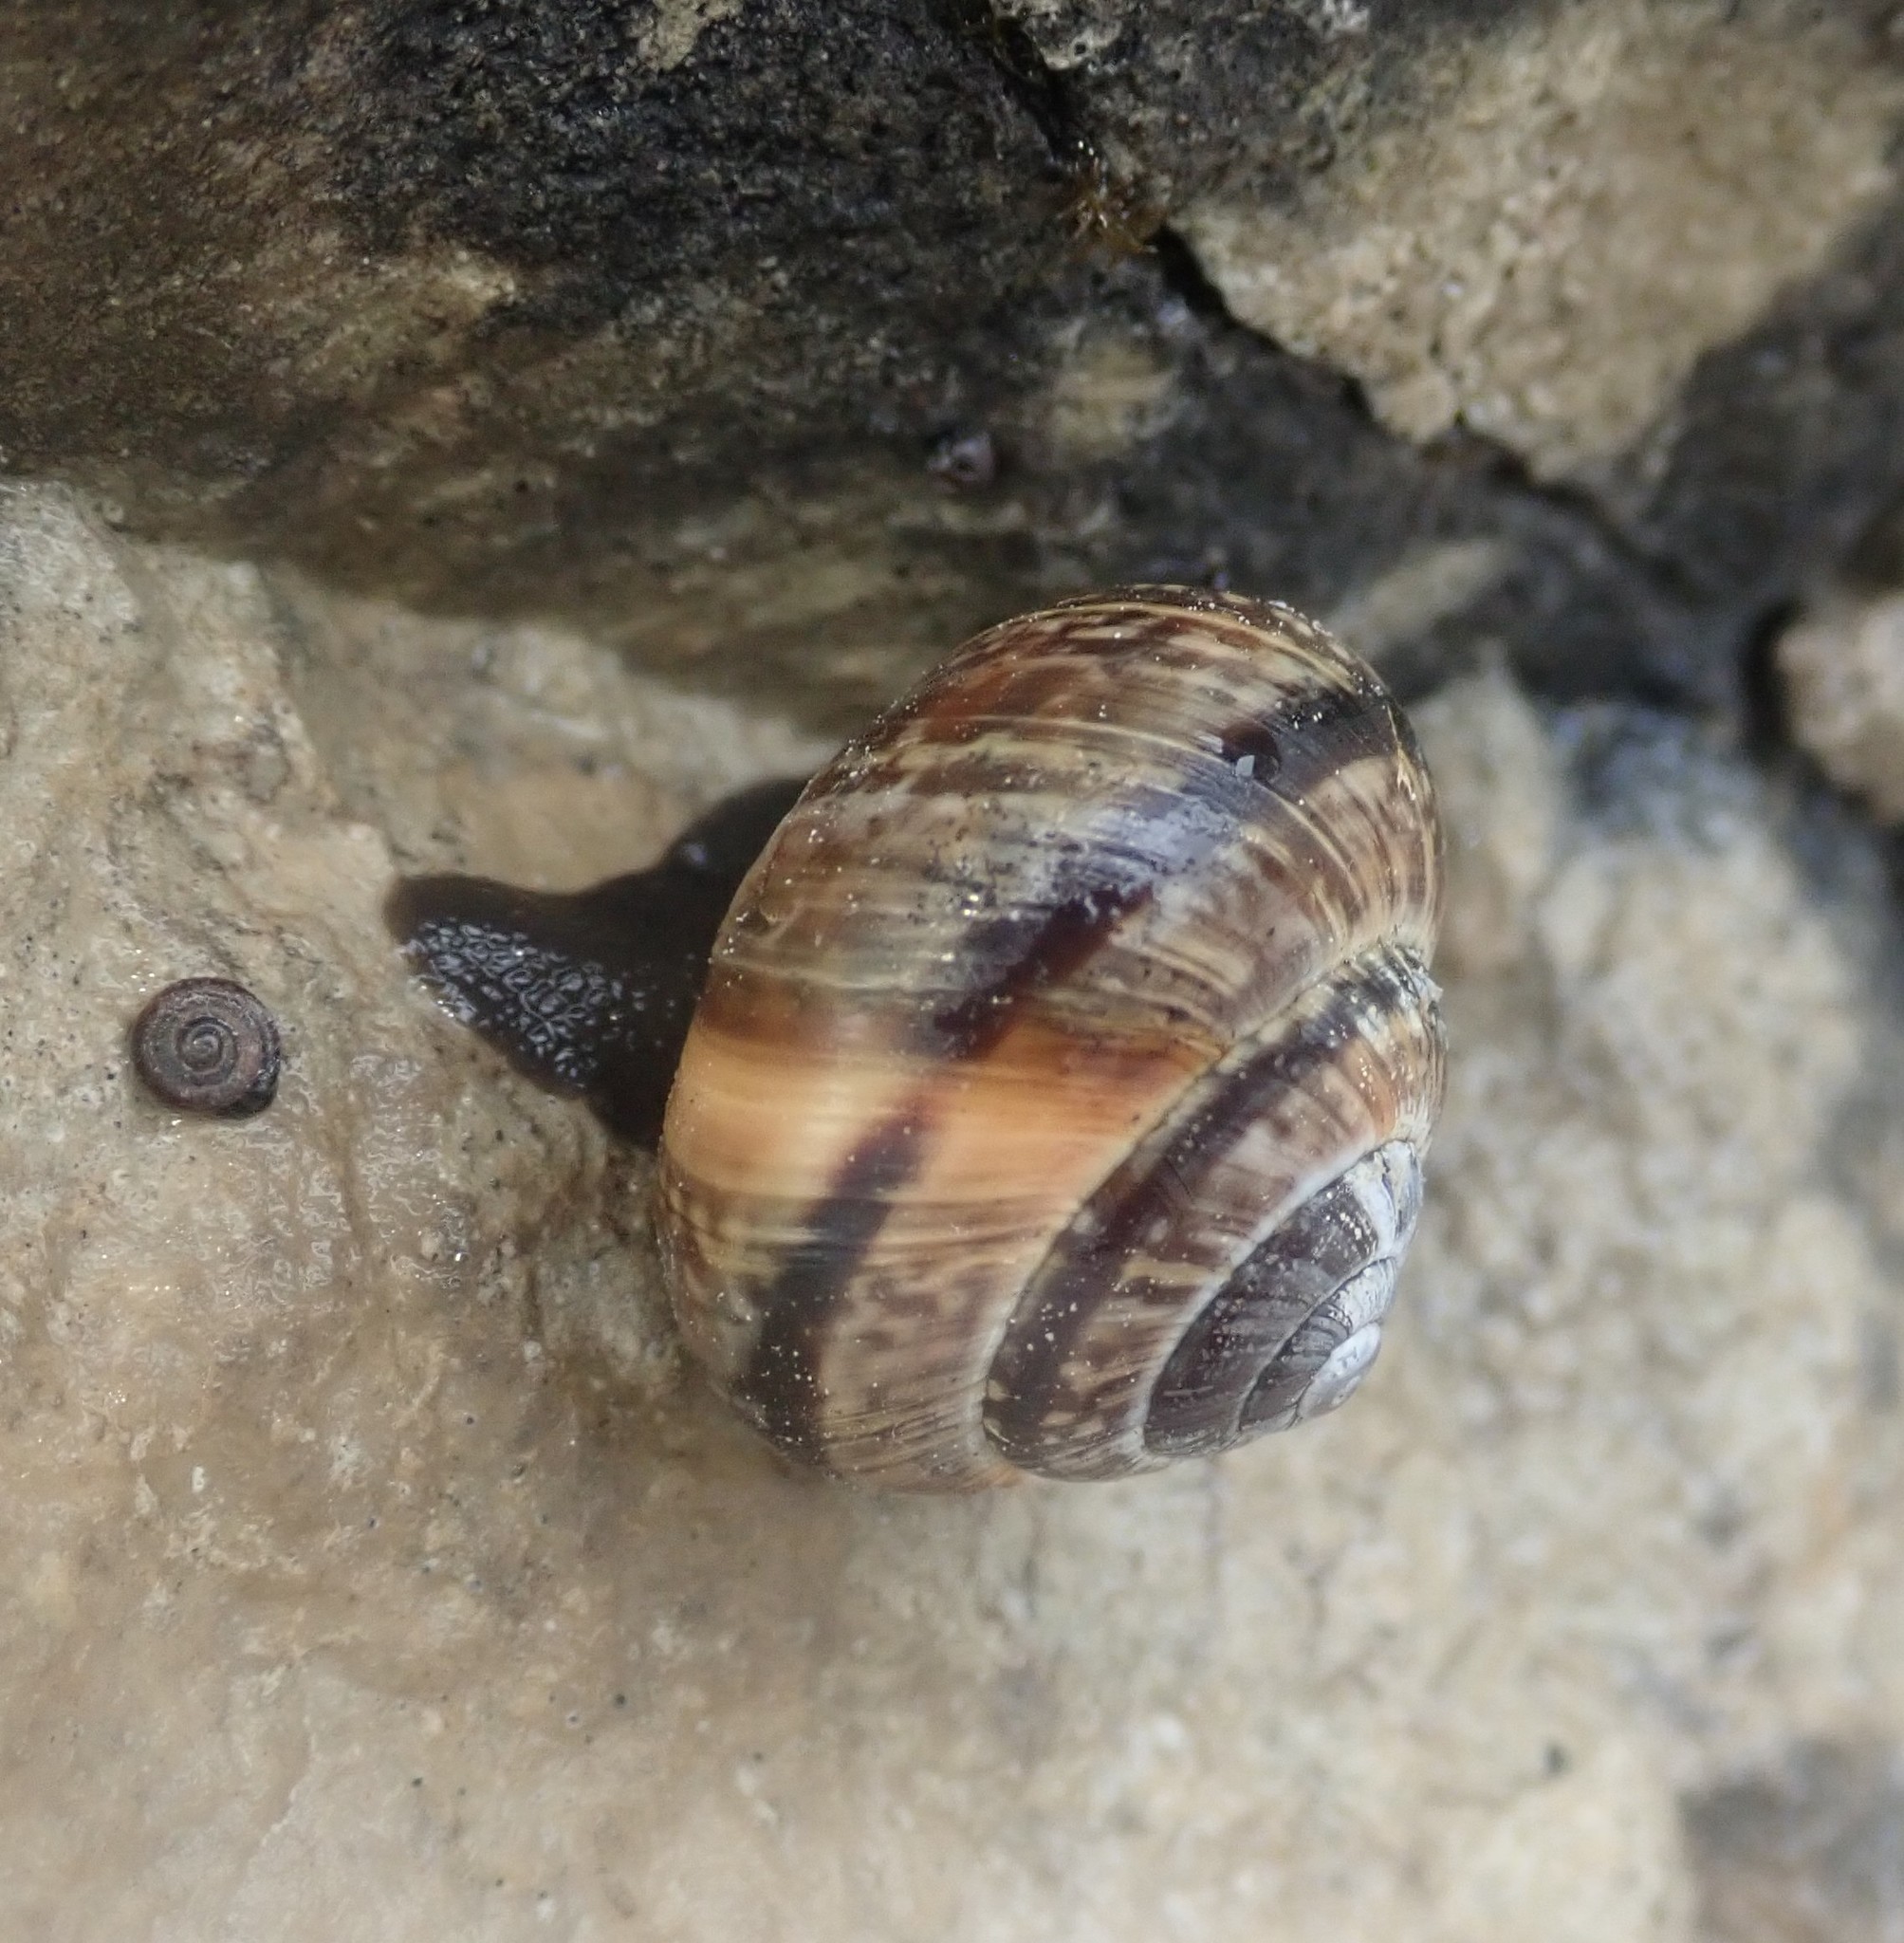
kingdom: Animalia
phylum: Mollusca
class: Gastropoda
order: Stylommatophora
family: Helicidae
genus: Arianta
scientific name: Arianta arbustorum
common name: Copse snail
